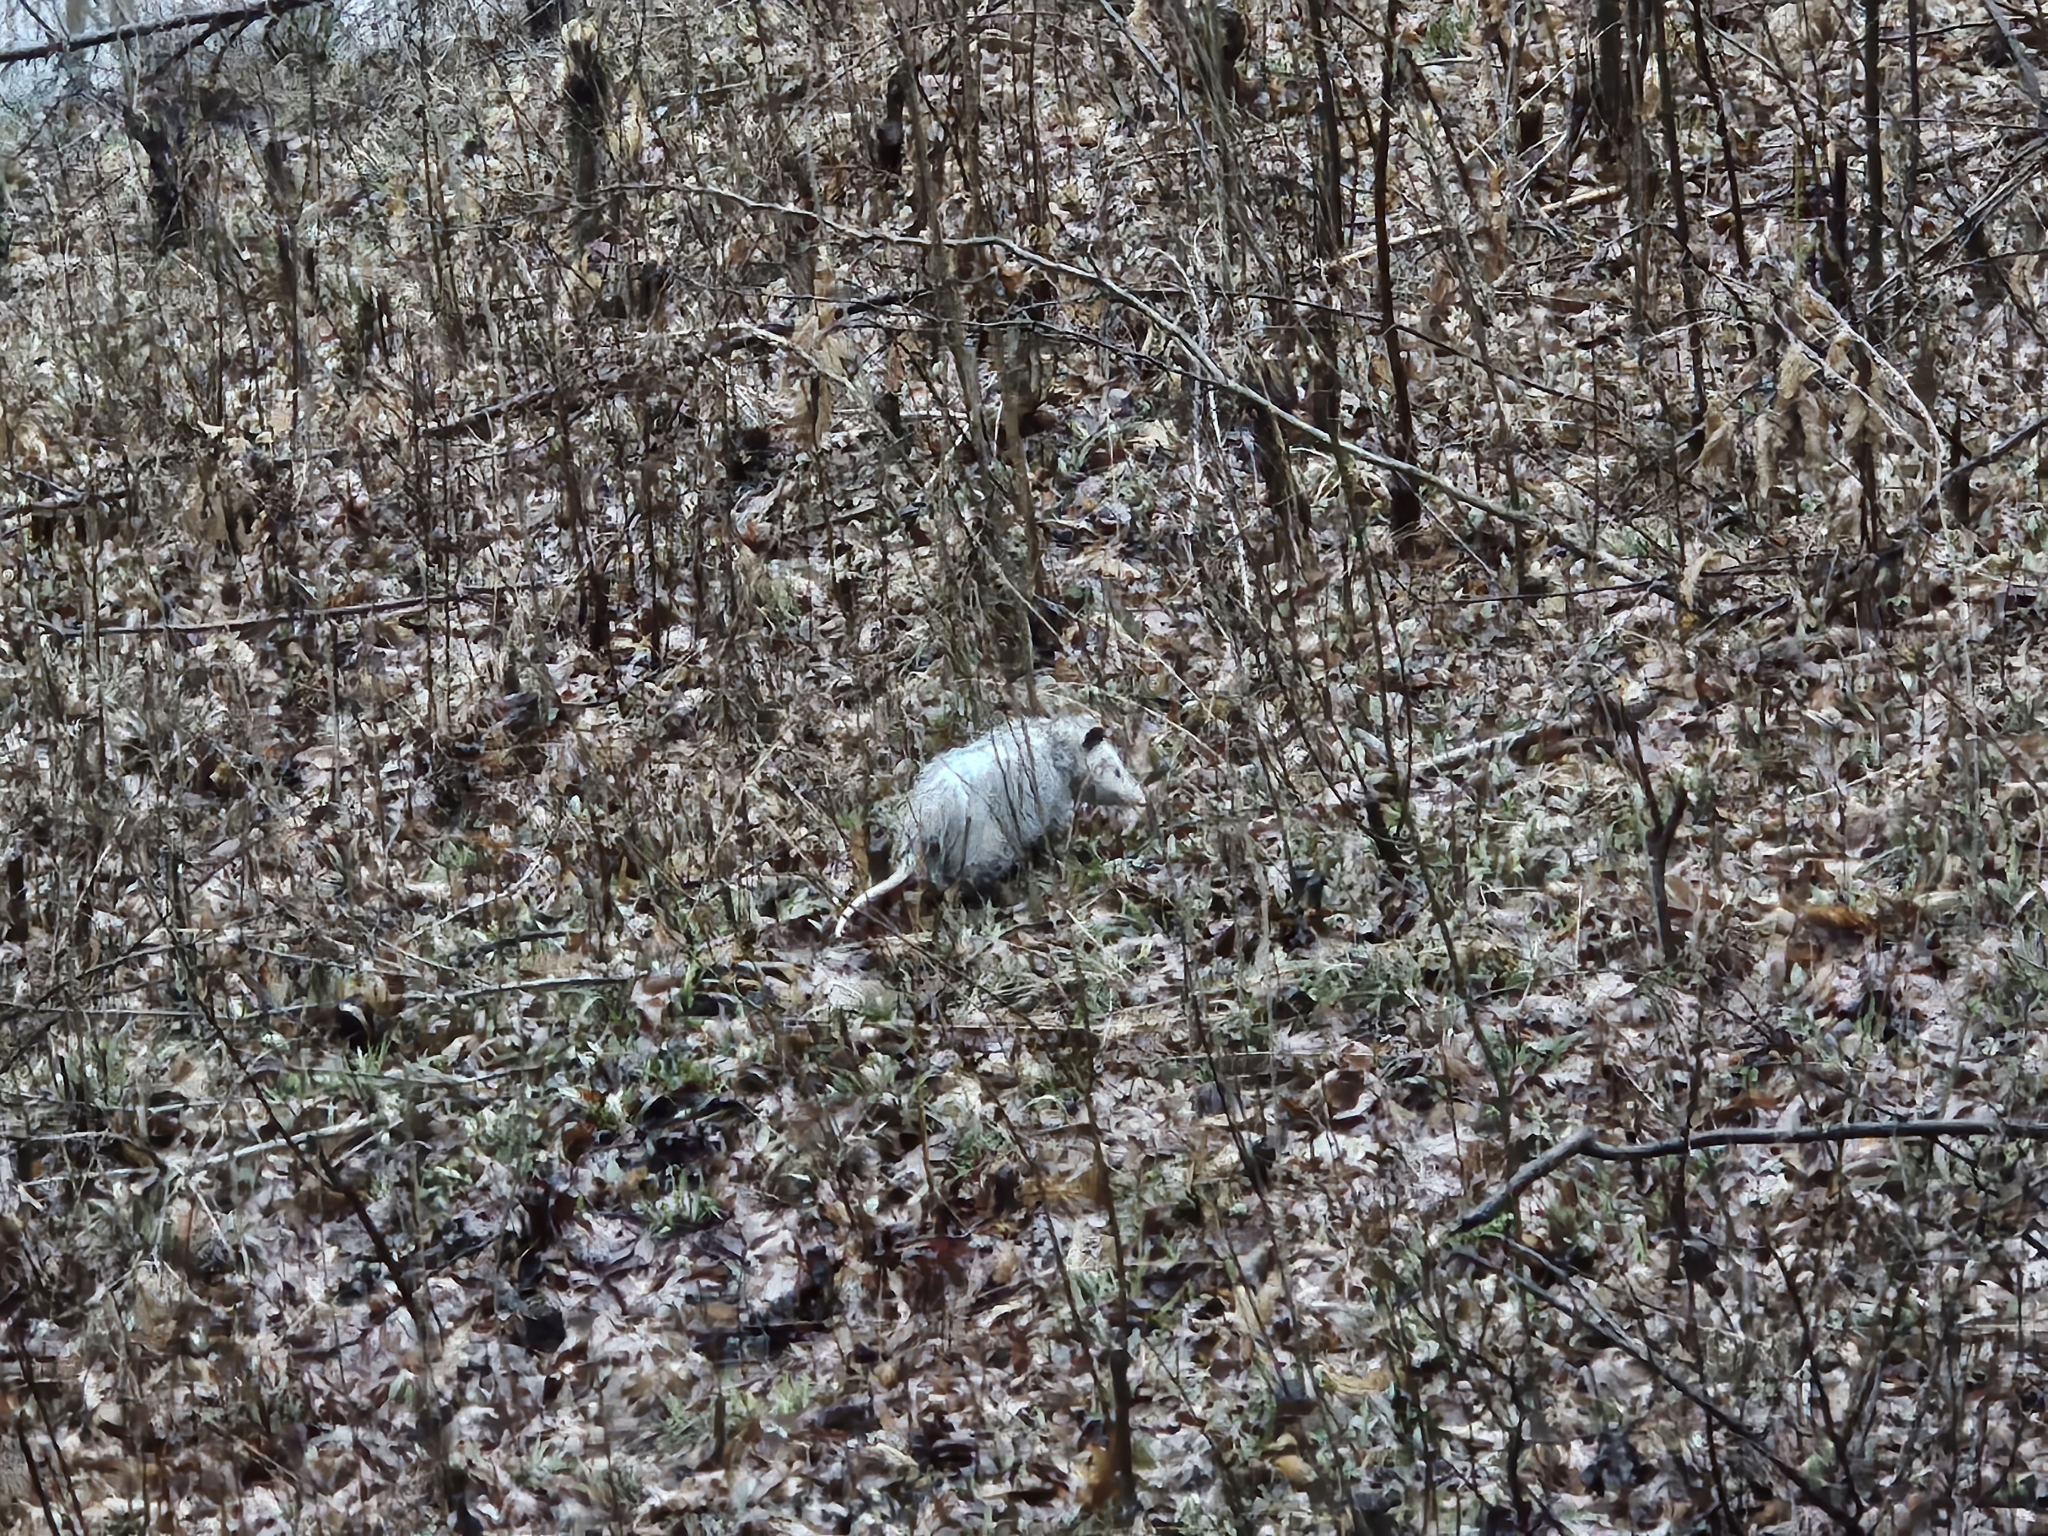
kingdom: Animalia
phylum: Chordata
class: Mammalia
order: Didelphimorphia
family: Didelphidae
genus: Didelphis
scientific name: Didelphis virginiana
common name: Virginia opossum
